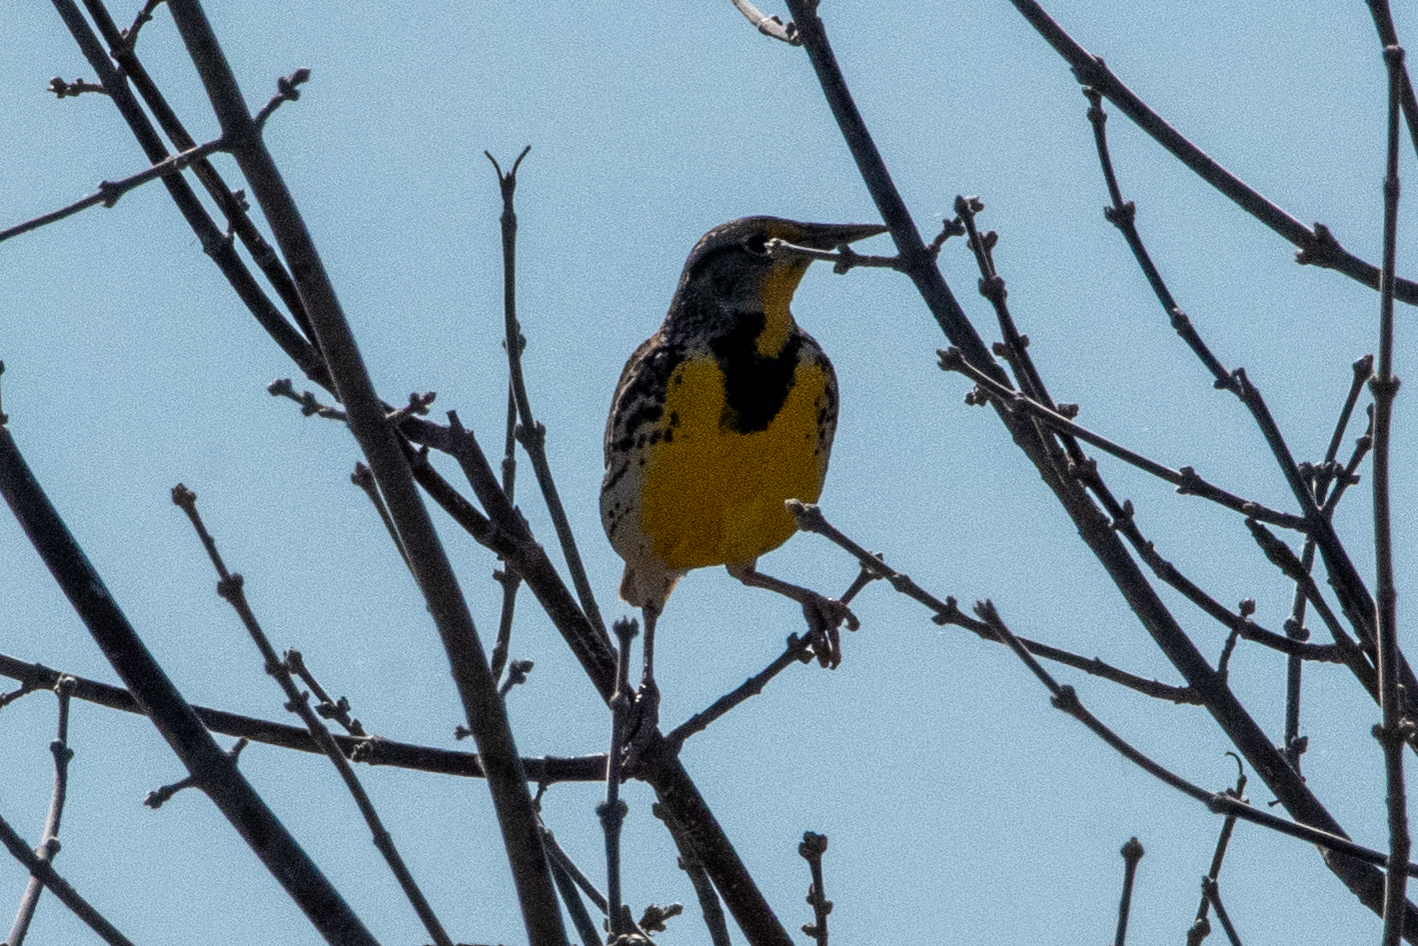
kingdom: Animalia
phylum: Chordata
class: Aves
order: Passeriformes
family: Icteridae
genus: Sturnella
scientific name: Sturnella neglecta
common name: Western meadowlark
